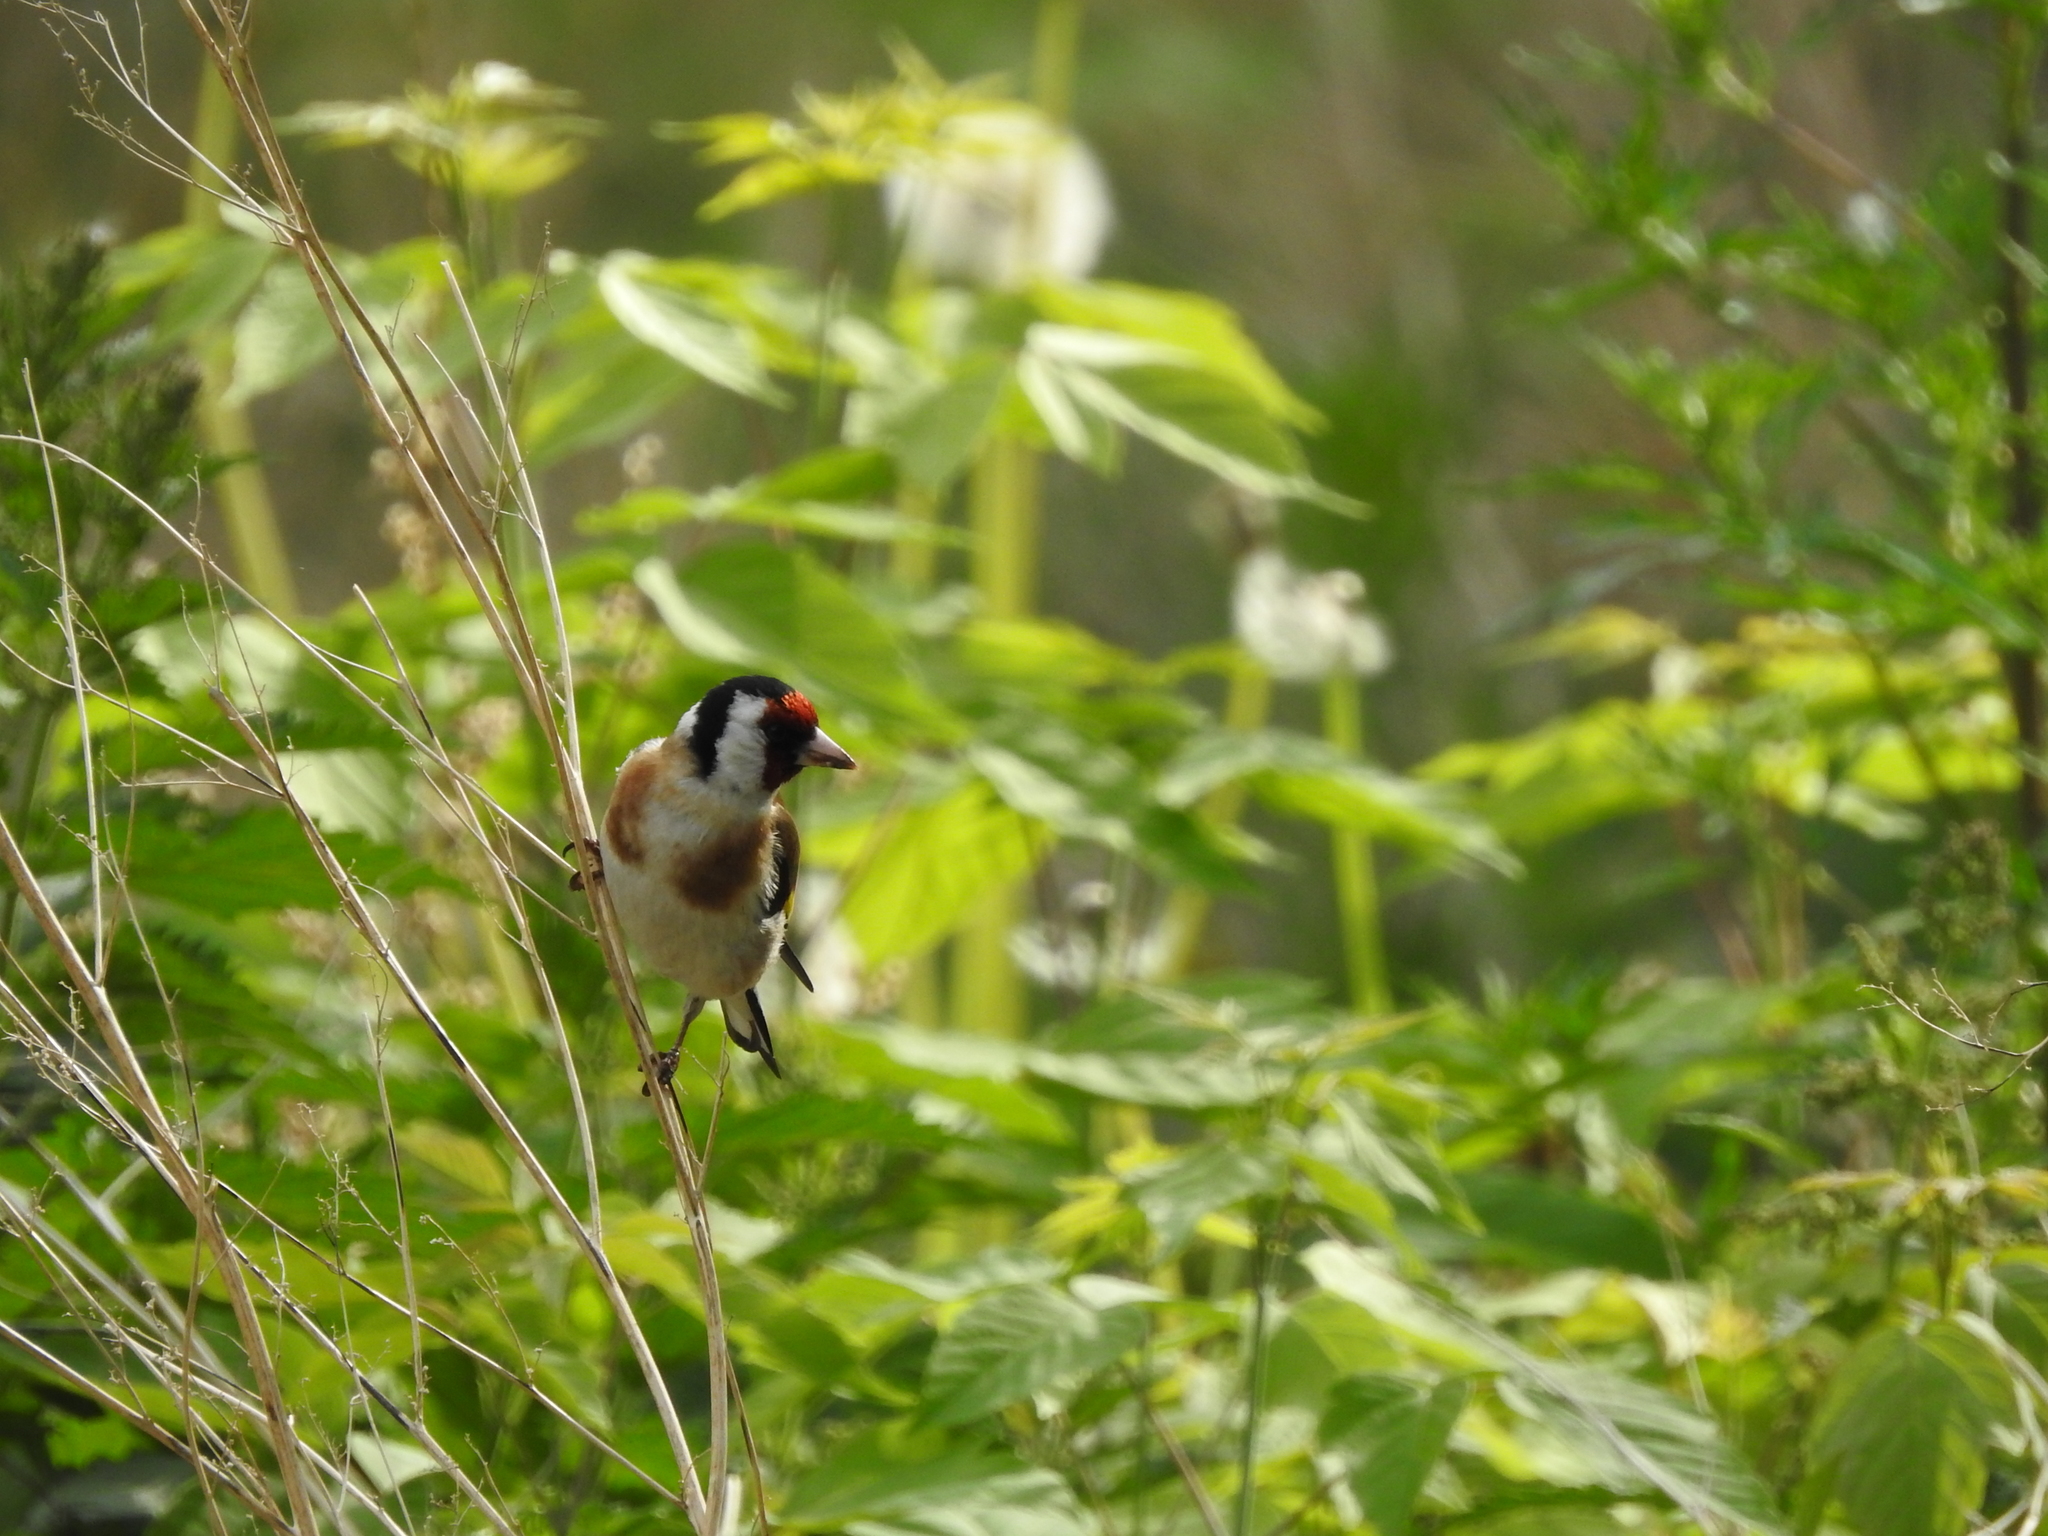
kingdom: Animalia
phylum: Chordata
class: Aves
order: Passeriformes
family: Fringillidae
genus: Carduelis
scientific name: Carduelis carduelis
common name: European goldfinch
